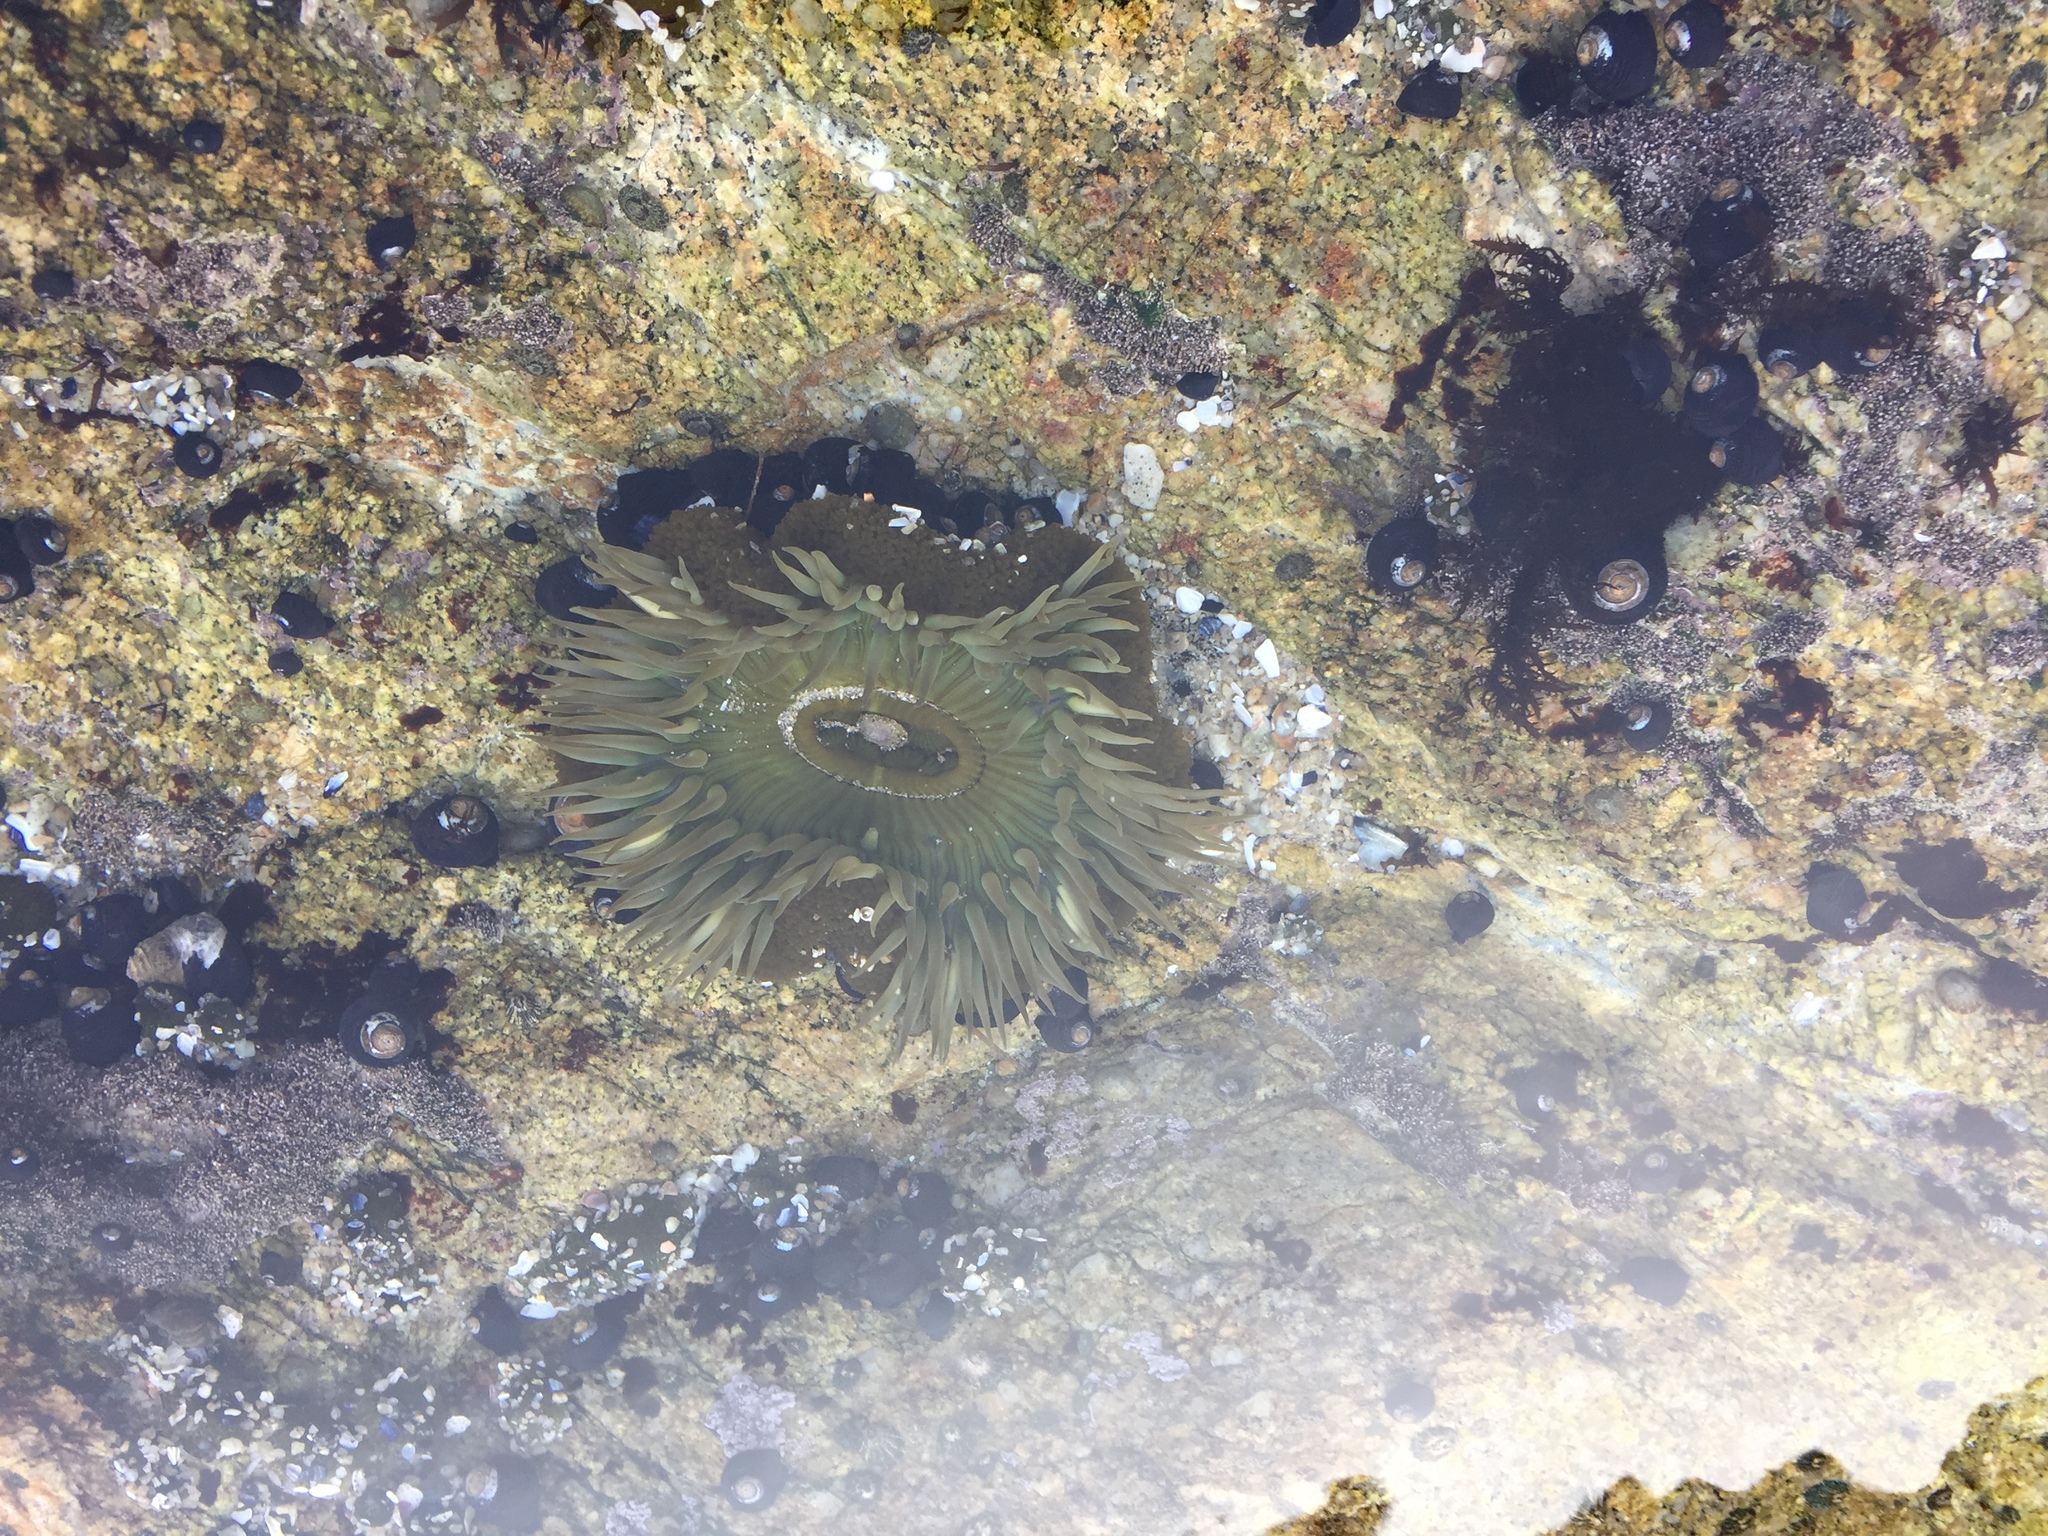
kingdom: Animalia
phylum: Cnidaria
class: Anthozoa
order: Actiniaria
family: Actiniidae
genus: Anthopleura
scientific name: Anthopleura sola
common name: Sun anemone
